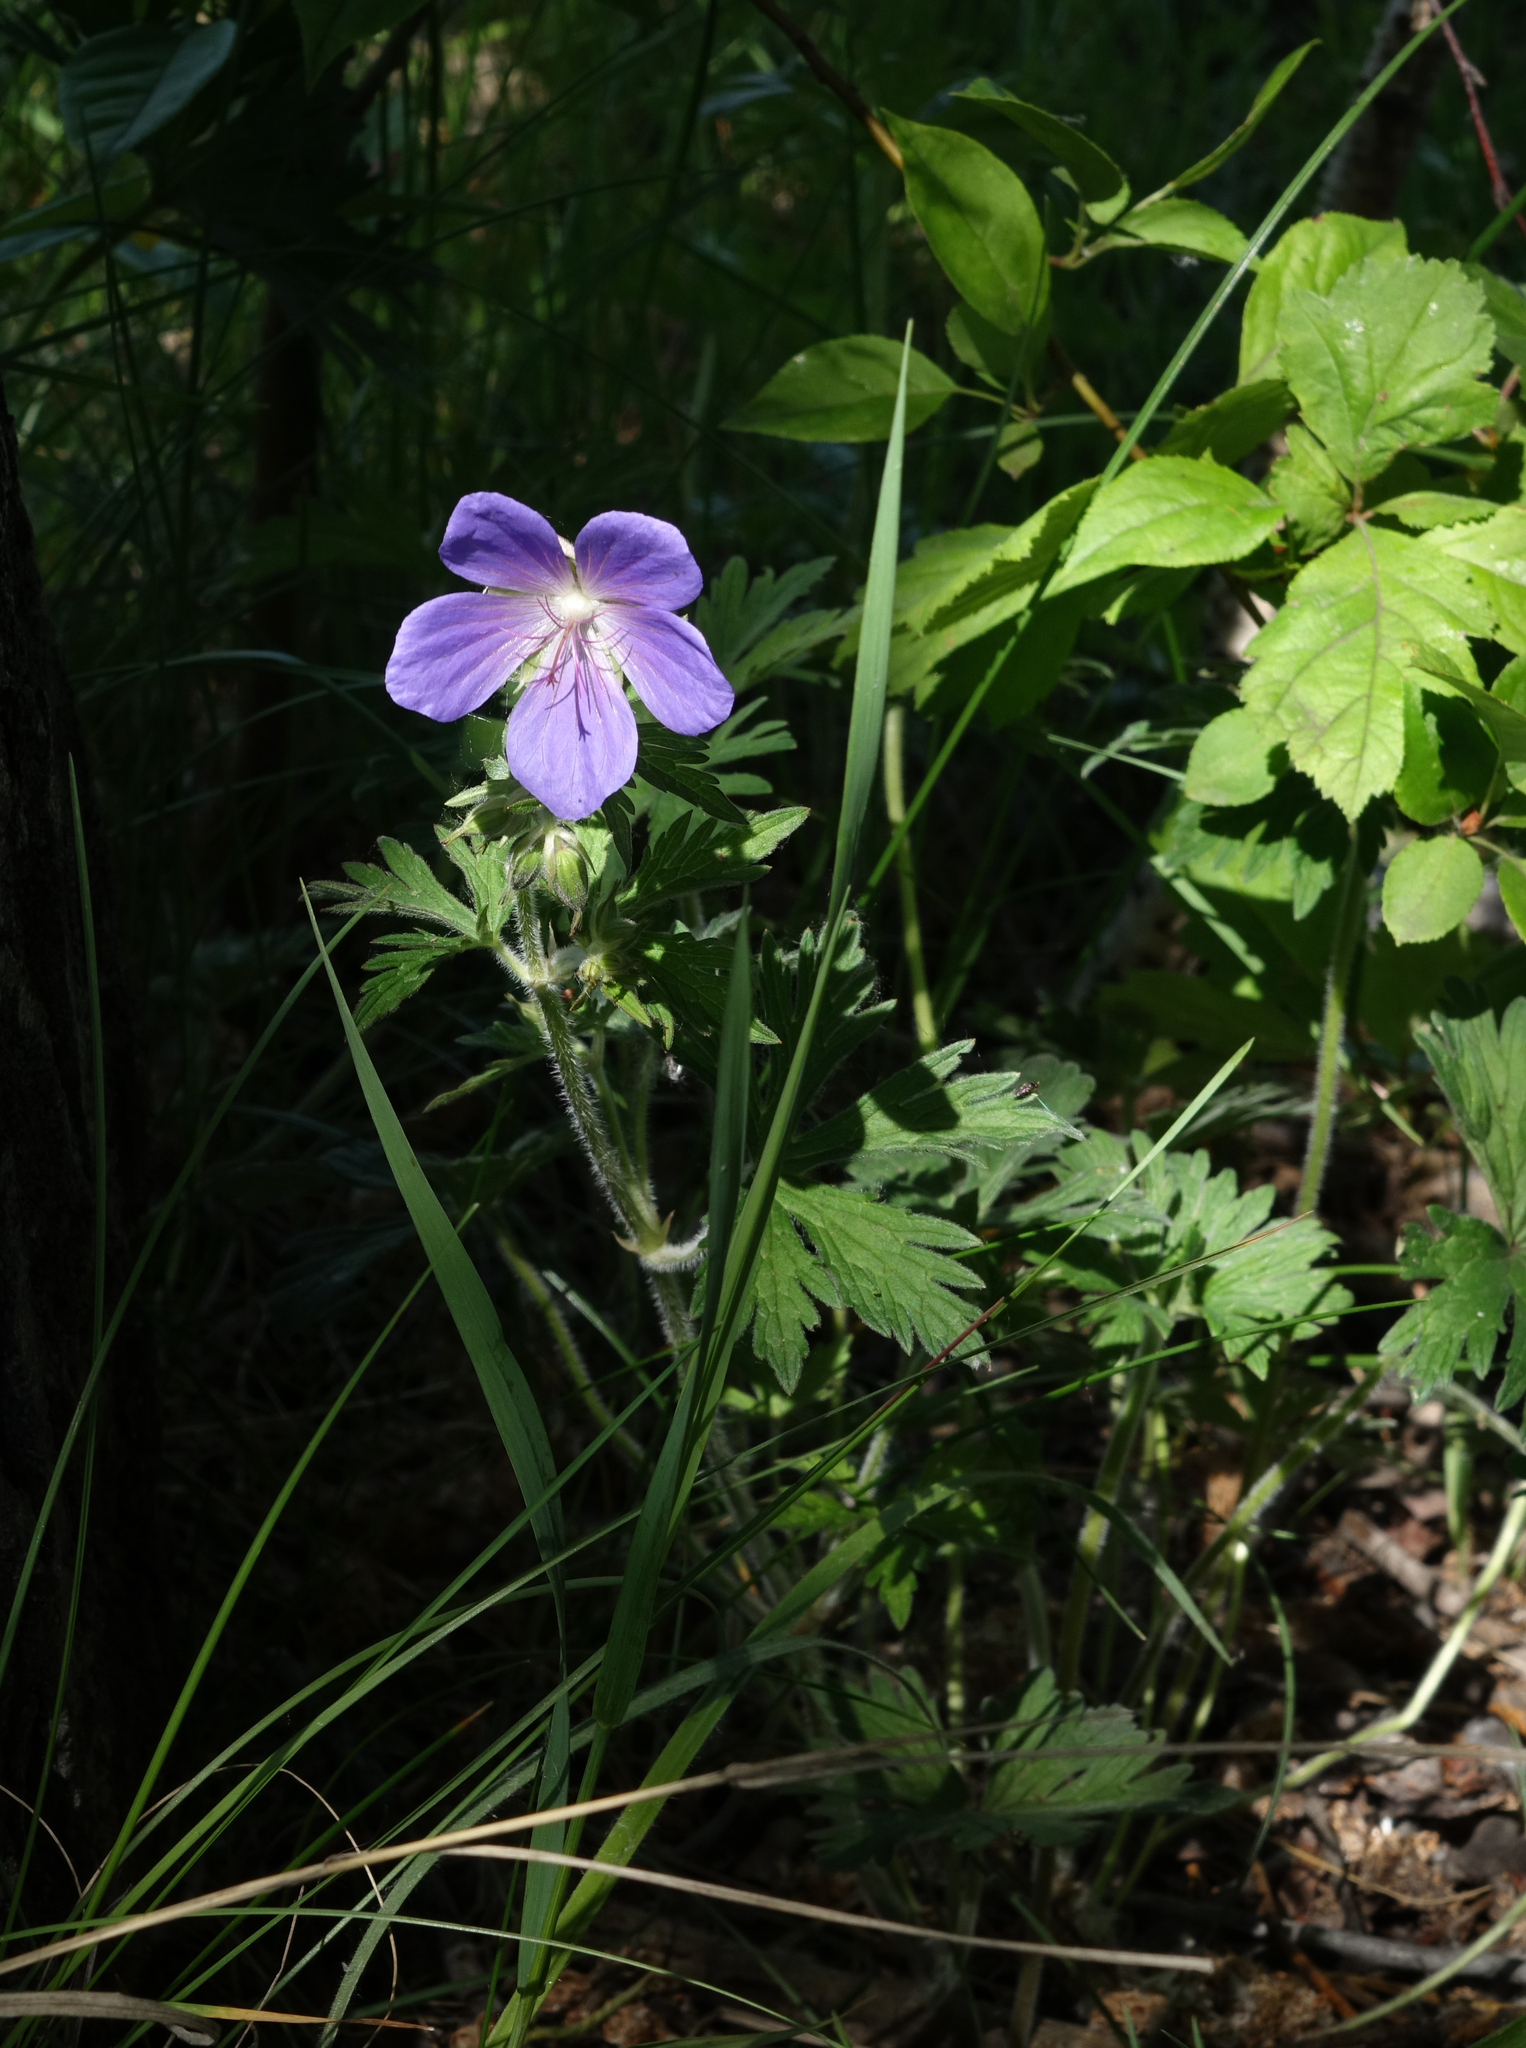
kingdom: Plantae
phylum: Tracheophyta
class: Magnoliopsida
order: Geraniales
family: Geraniaceae
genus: Geranium
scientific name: Geranium pratense
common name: Meadow crane's-bill
